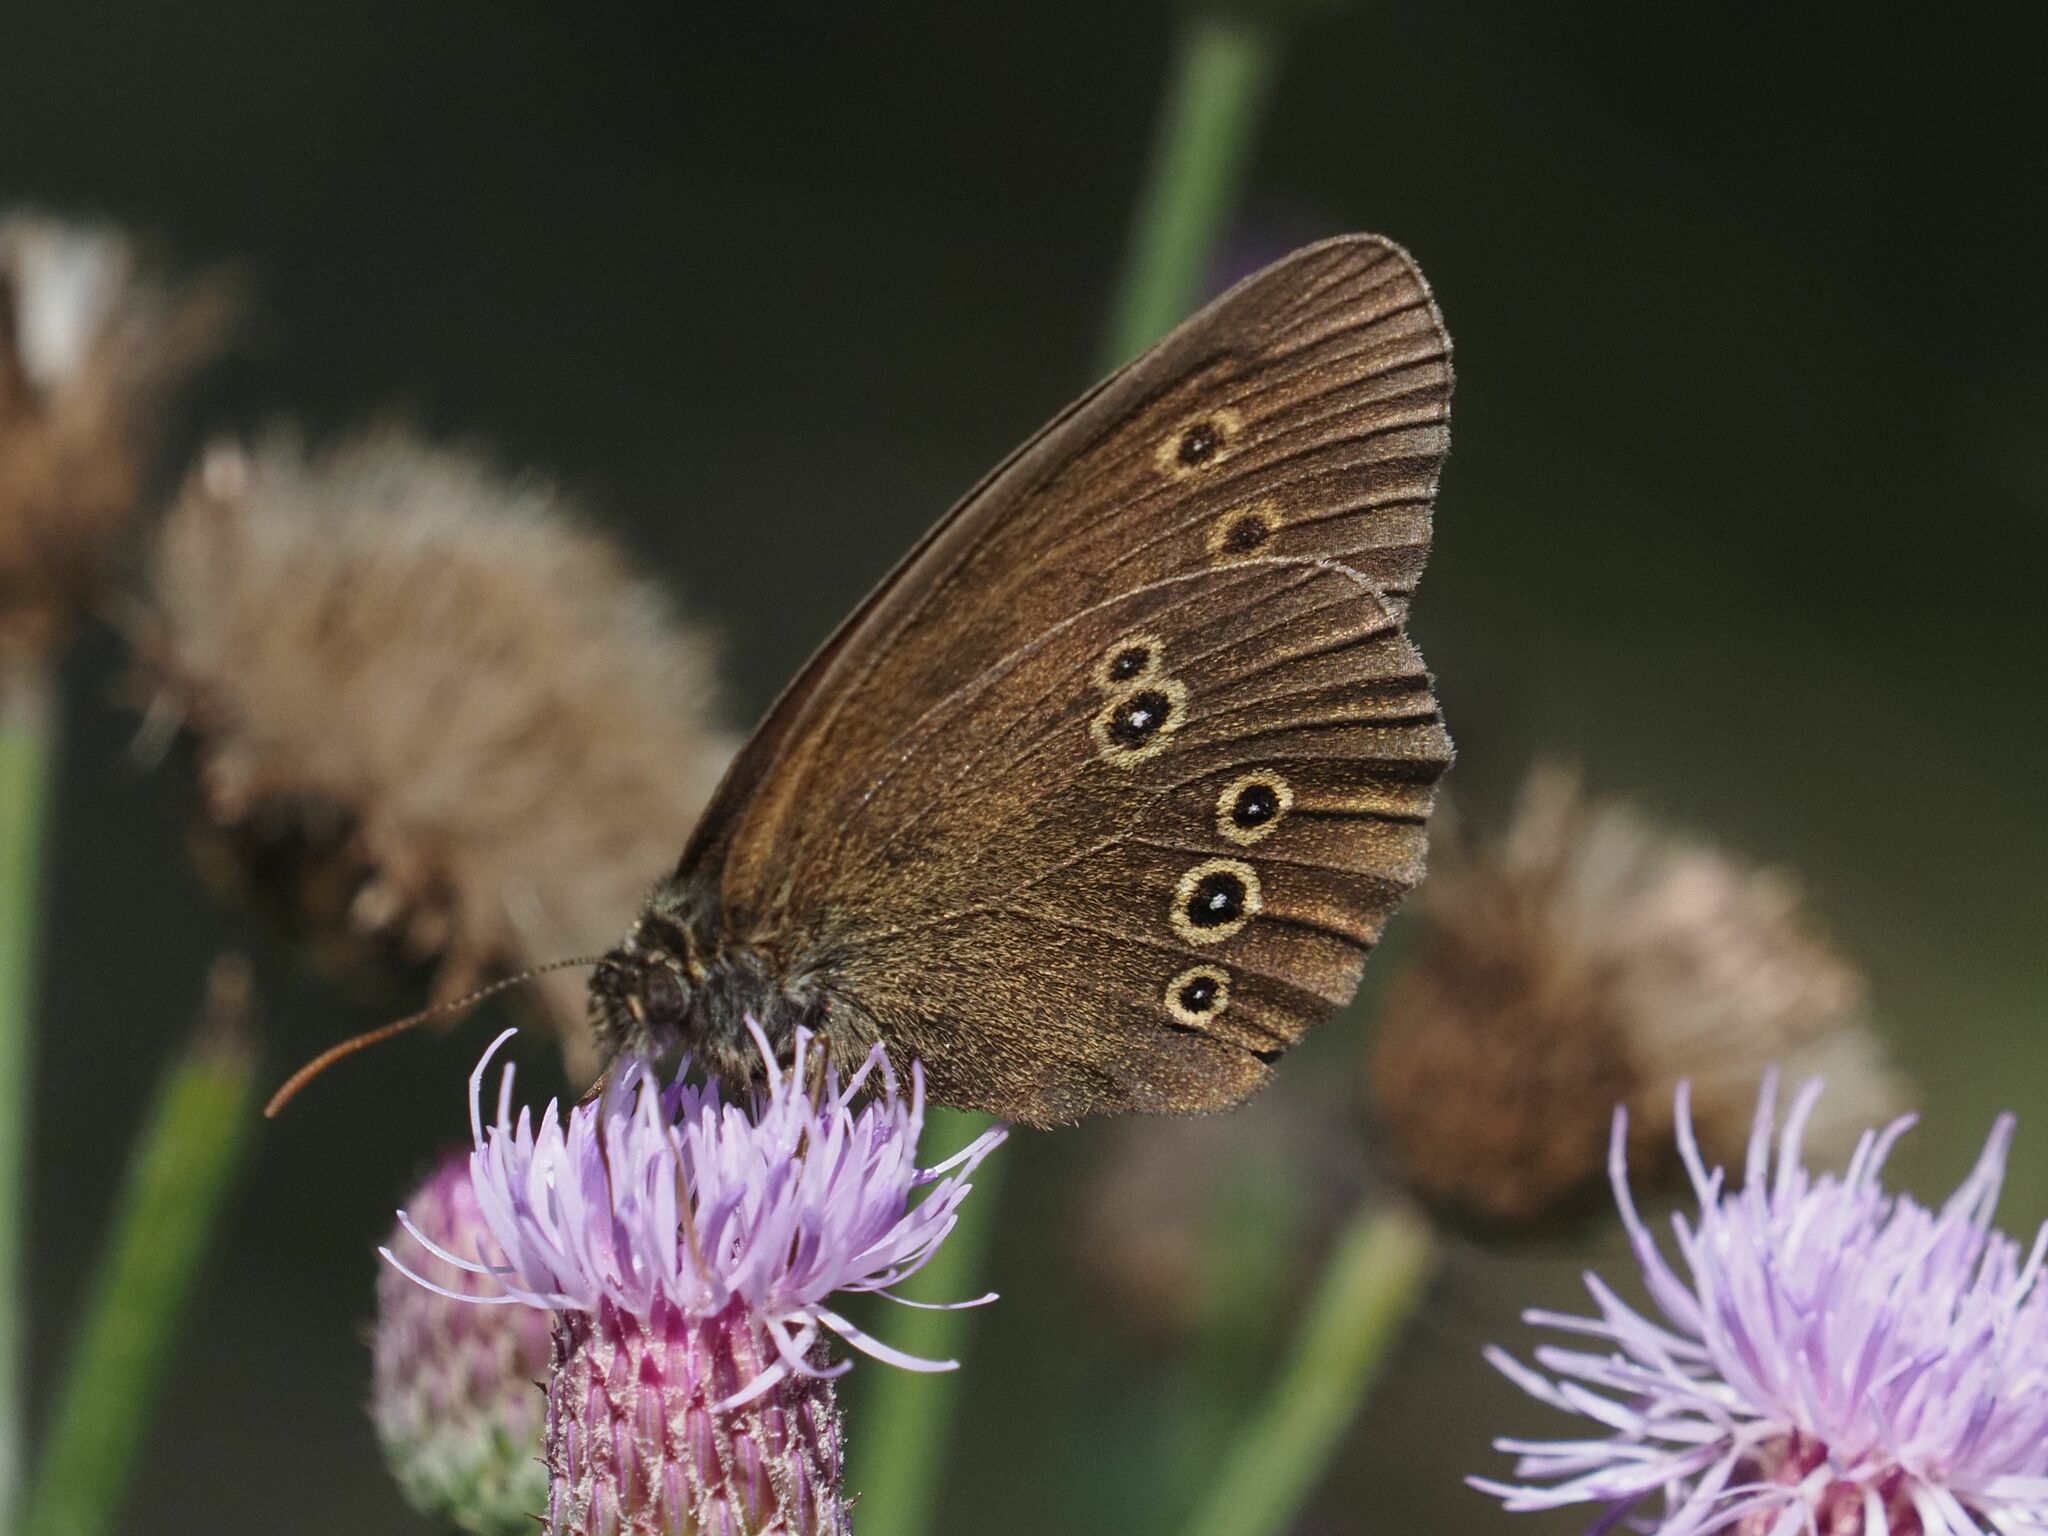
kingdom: Animalia
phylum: Arthropoda
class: Insecta
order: Lepidoptera
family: Nymphalidae
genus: Aphantopus
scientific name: Aphantopus hyperantus
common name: Ringlet
